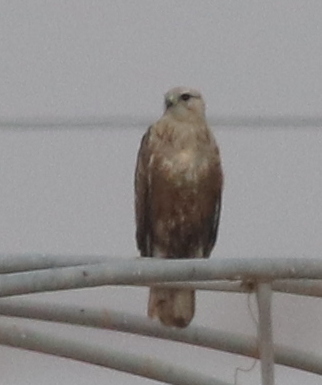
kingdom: Animalia
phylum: Chordata
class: Aves
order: Accipitriformes
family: Accipitridae
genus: Buteo
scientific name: Buteo rufinus
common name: Long-legged buzzard
